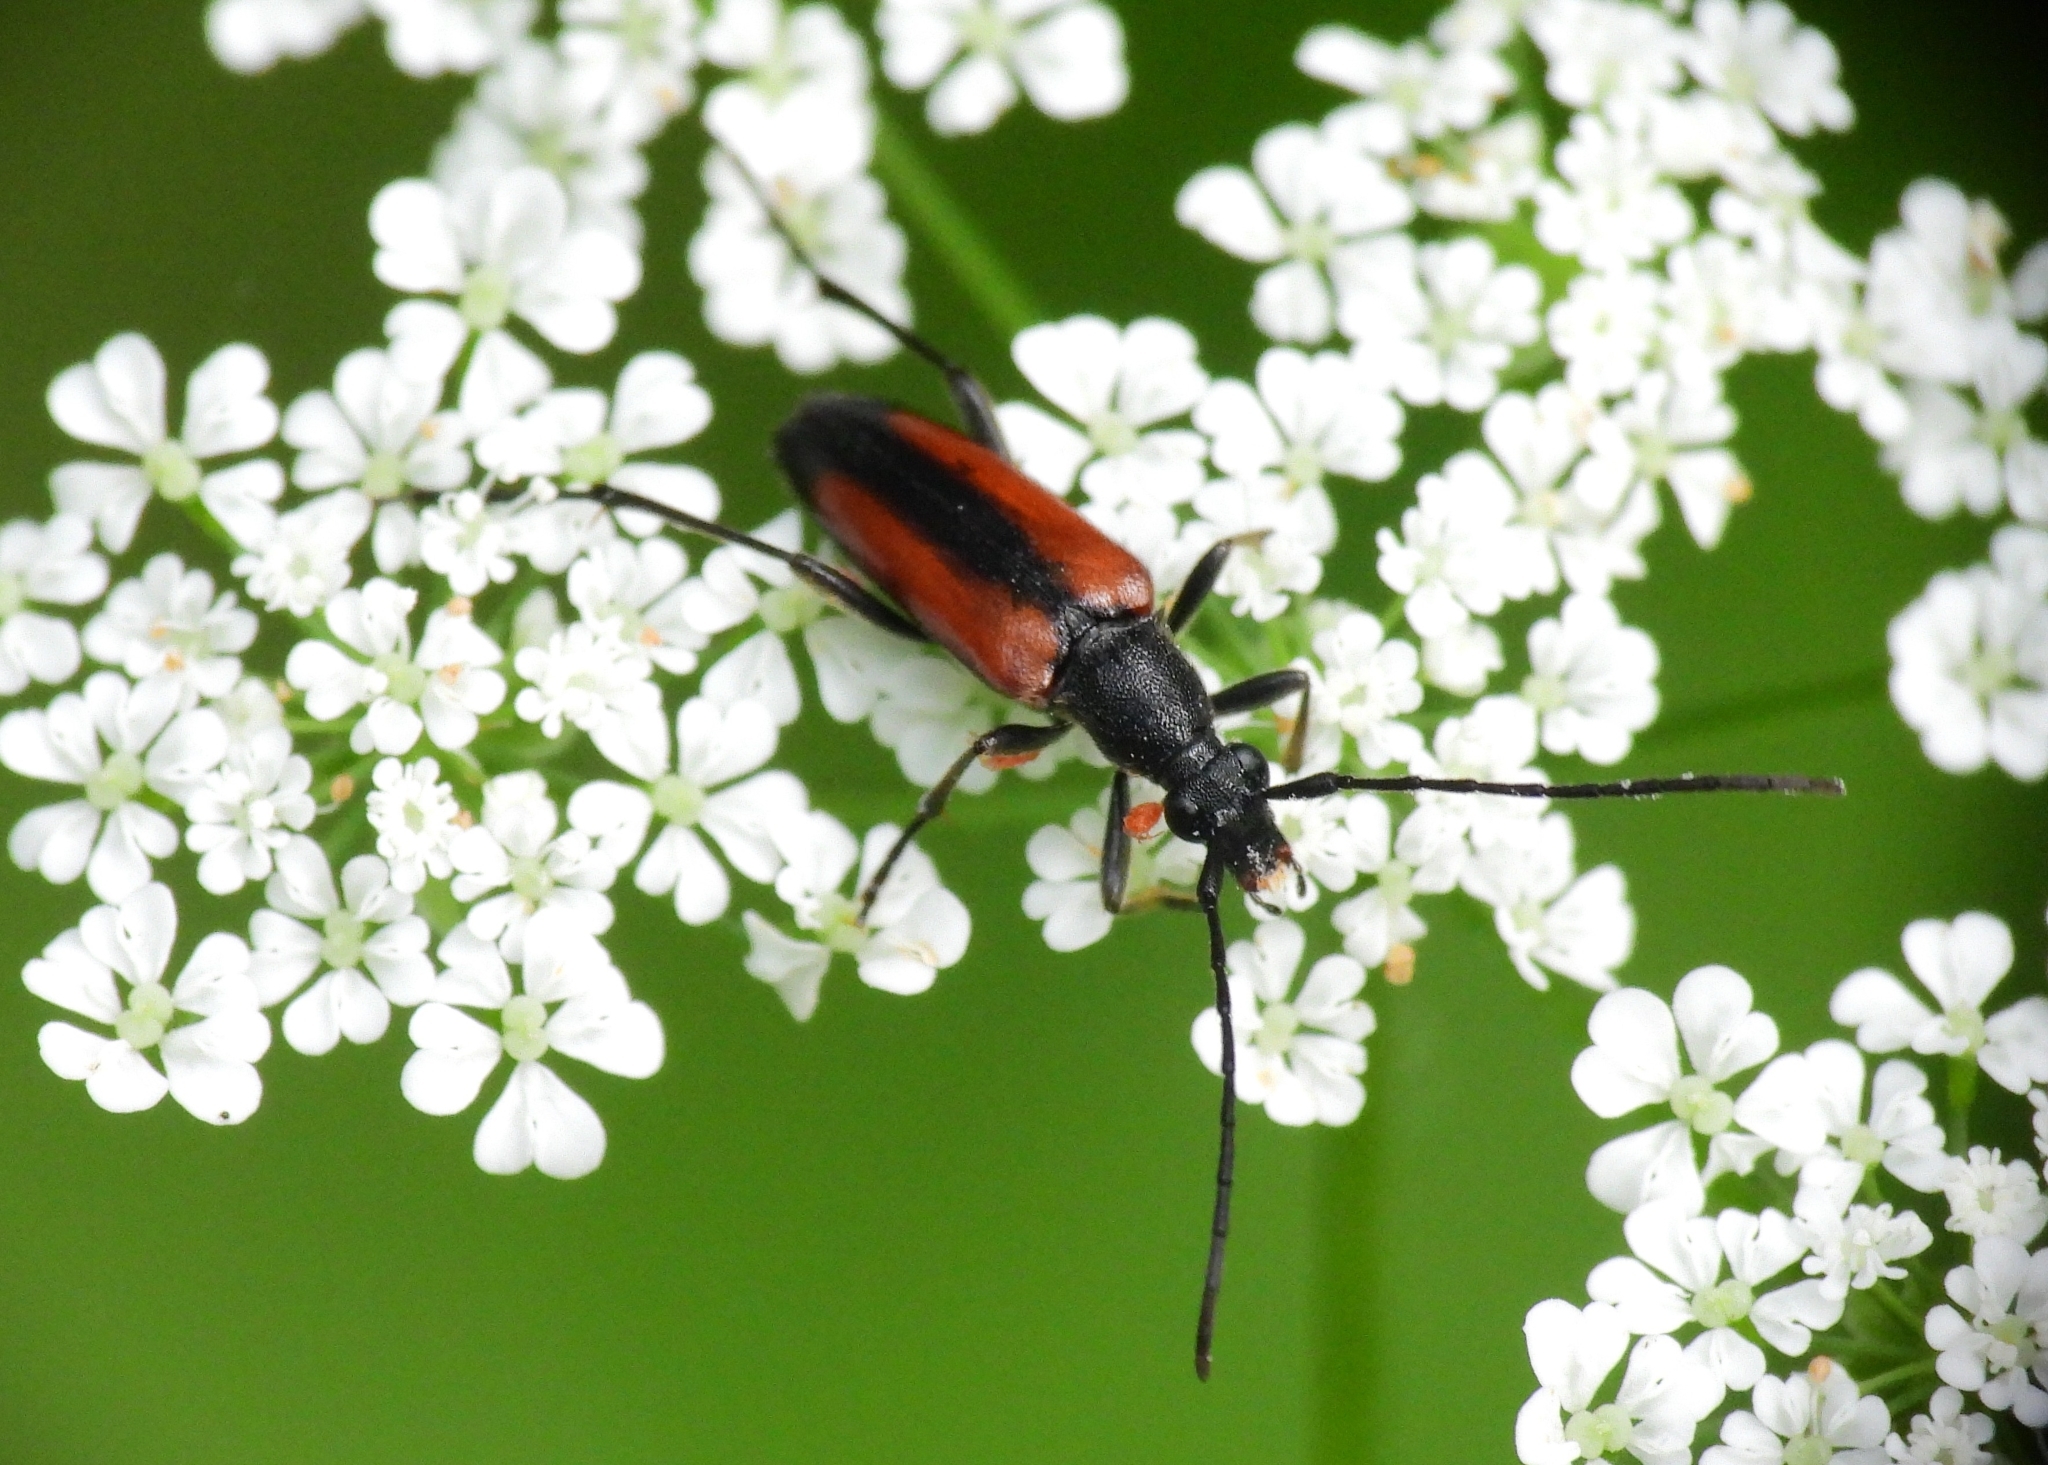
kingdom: Animalia
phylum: Arthropoda
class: Insecta
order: Coleoptera
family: Cerambycidae
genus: Stenurella
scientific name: Stenurella melanura
